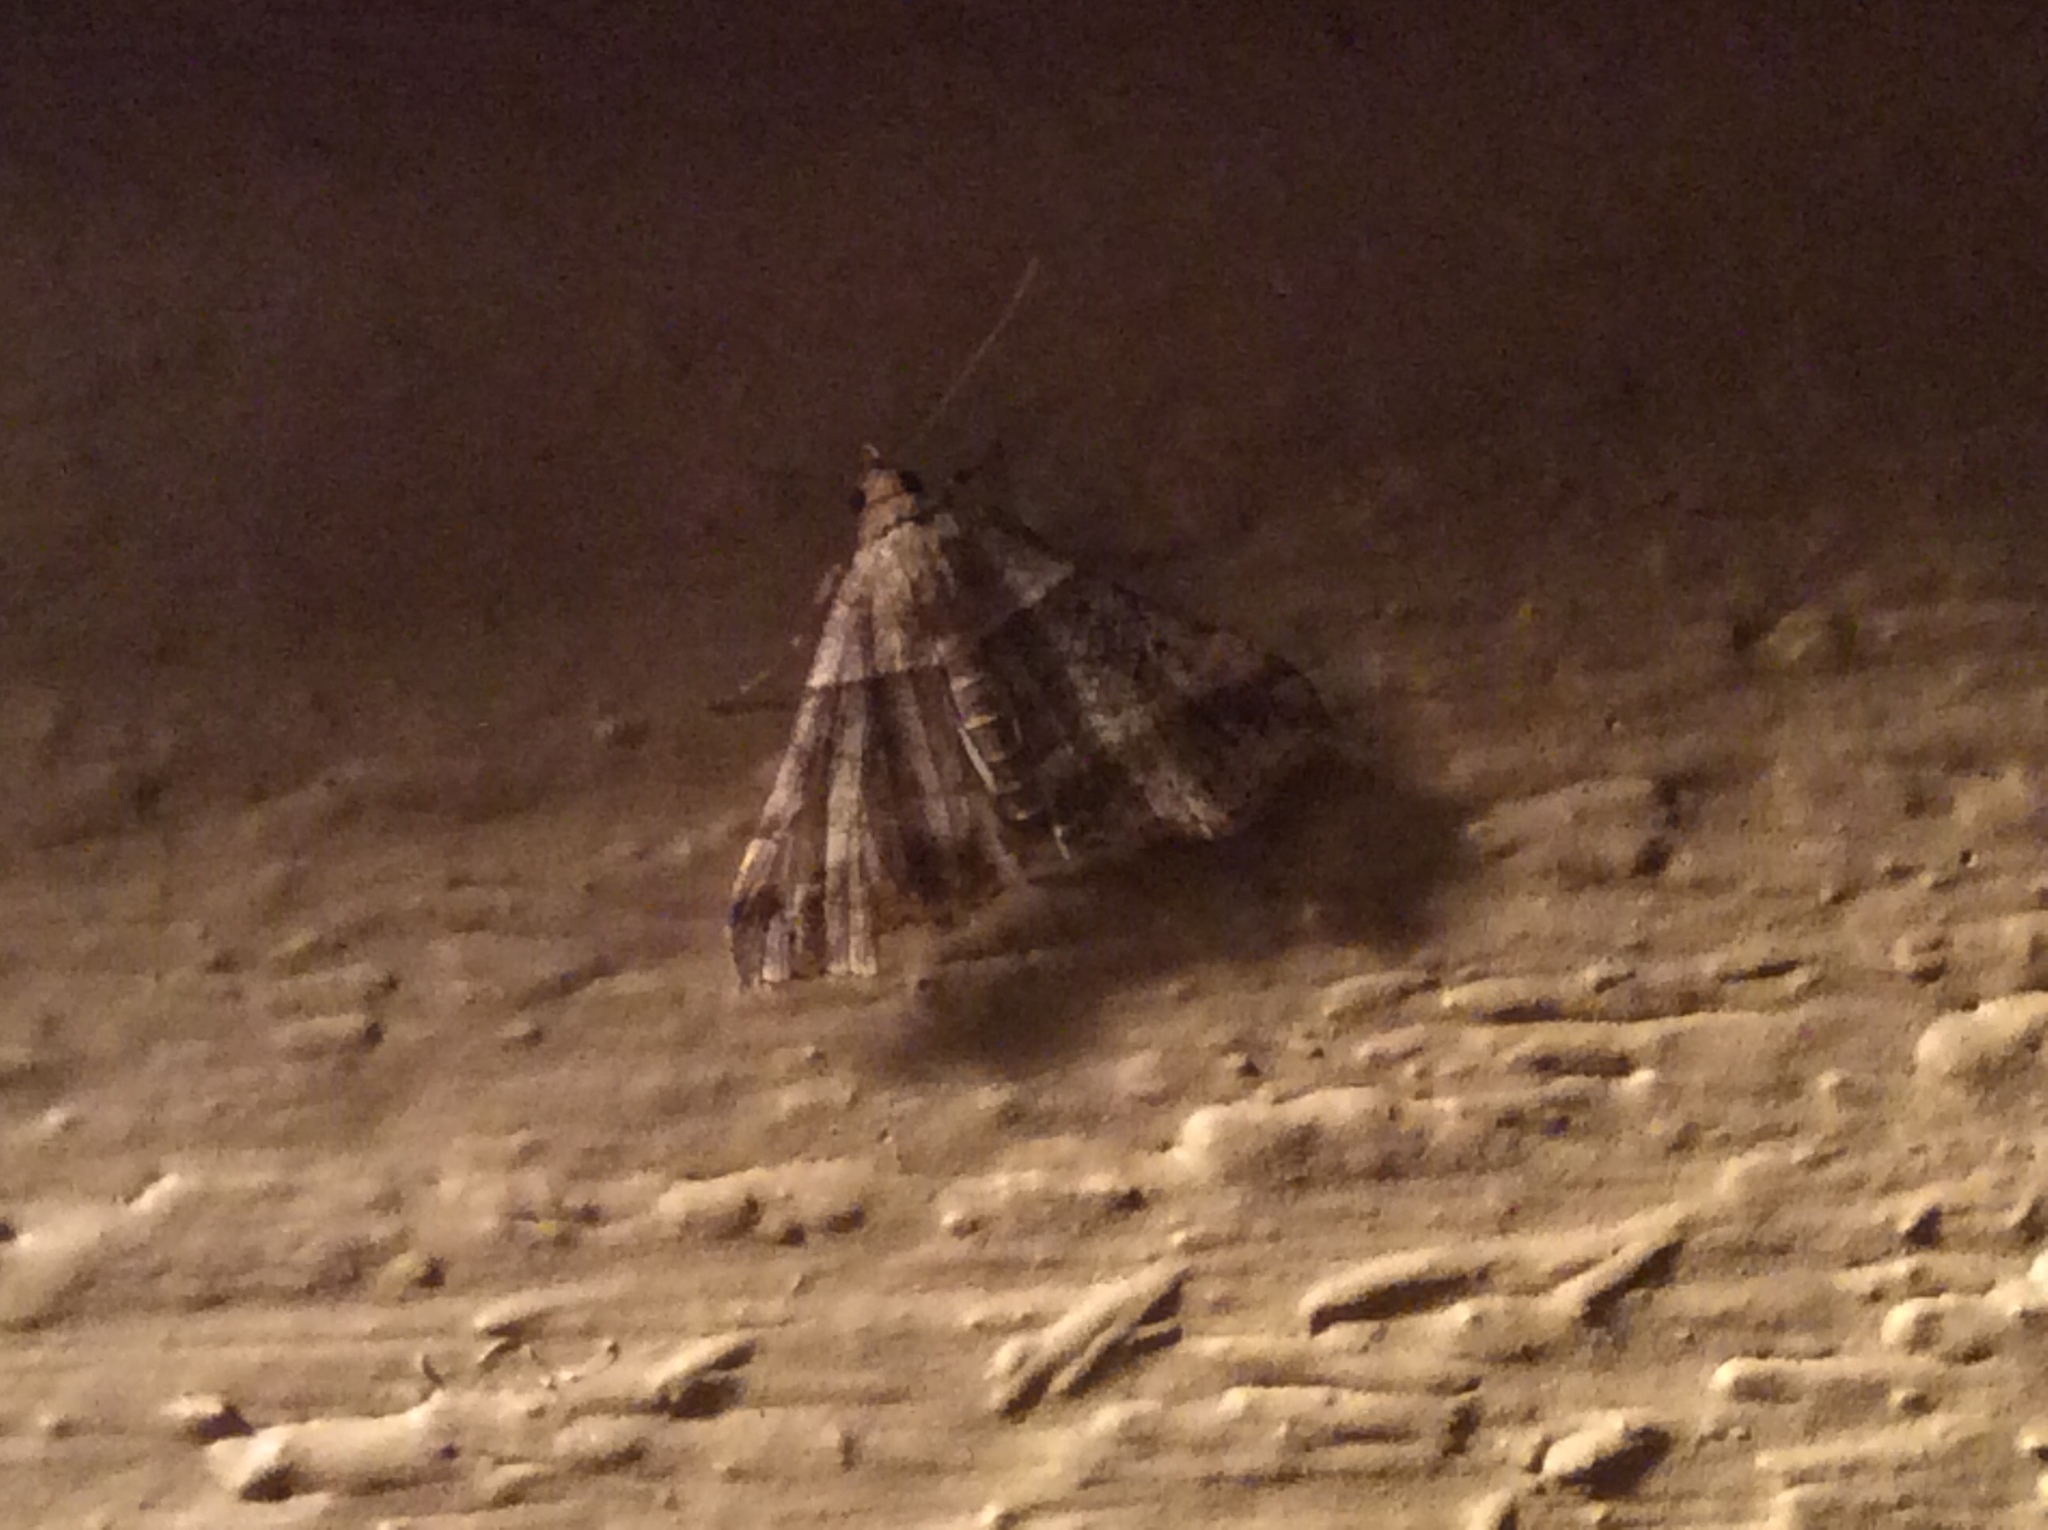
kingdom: Animalia
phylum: Arthropoda
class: Insecta
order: Lepidoptera
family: Erebidae
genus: Phaeolita
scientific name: Phaeolita pyramusalis
